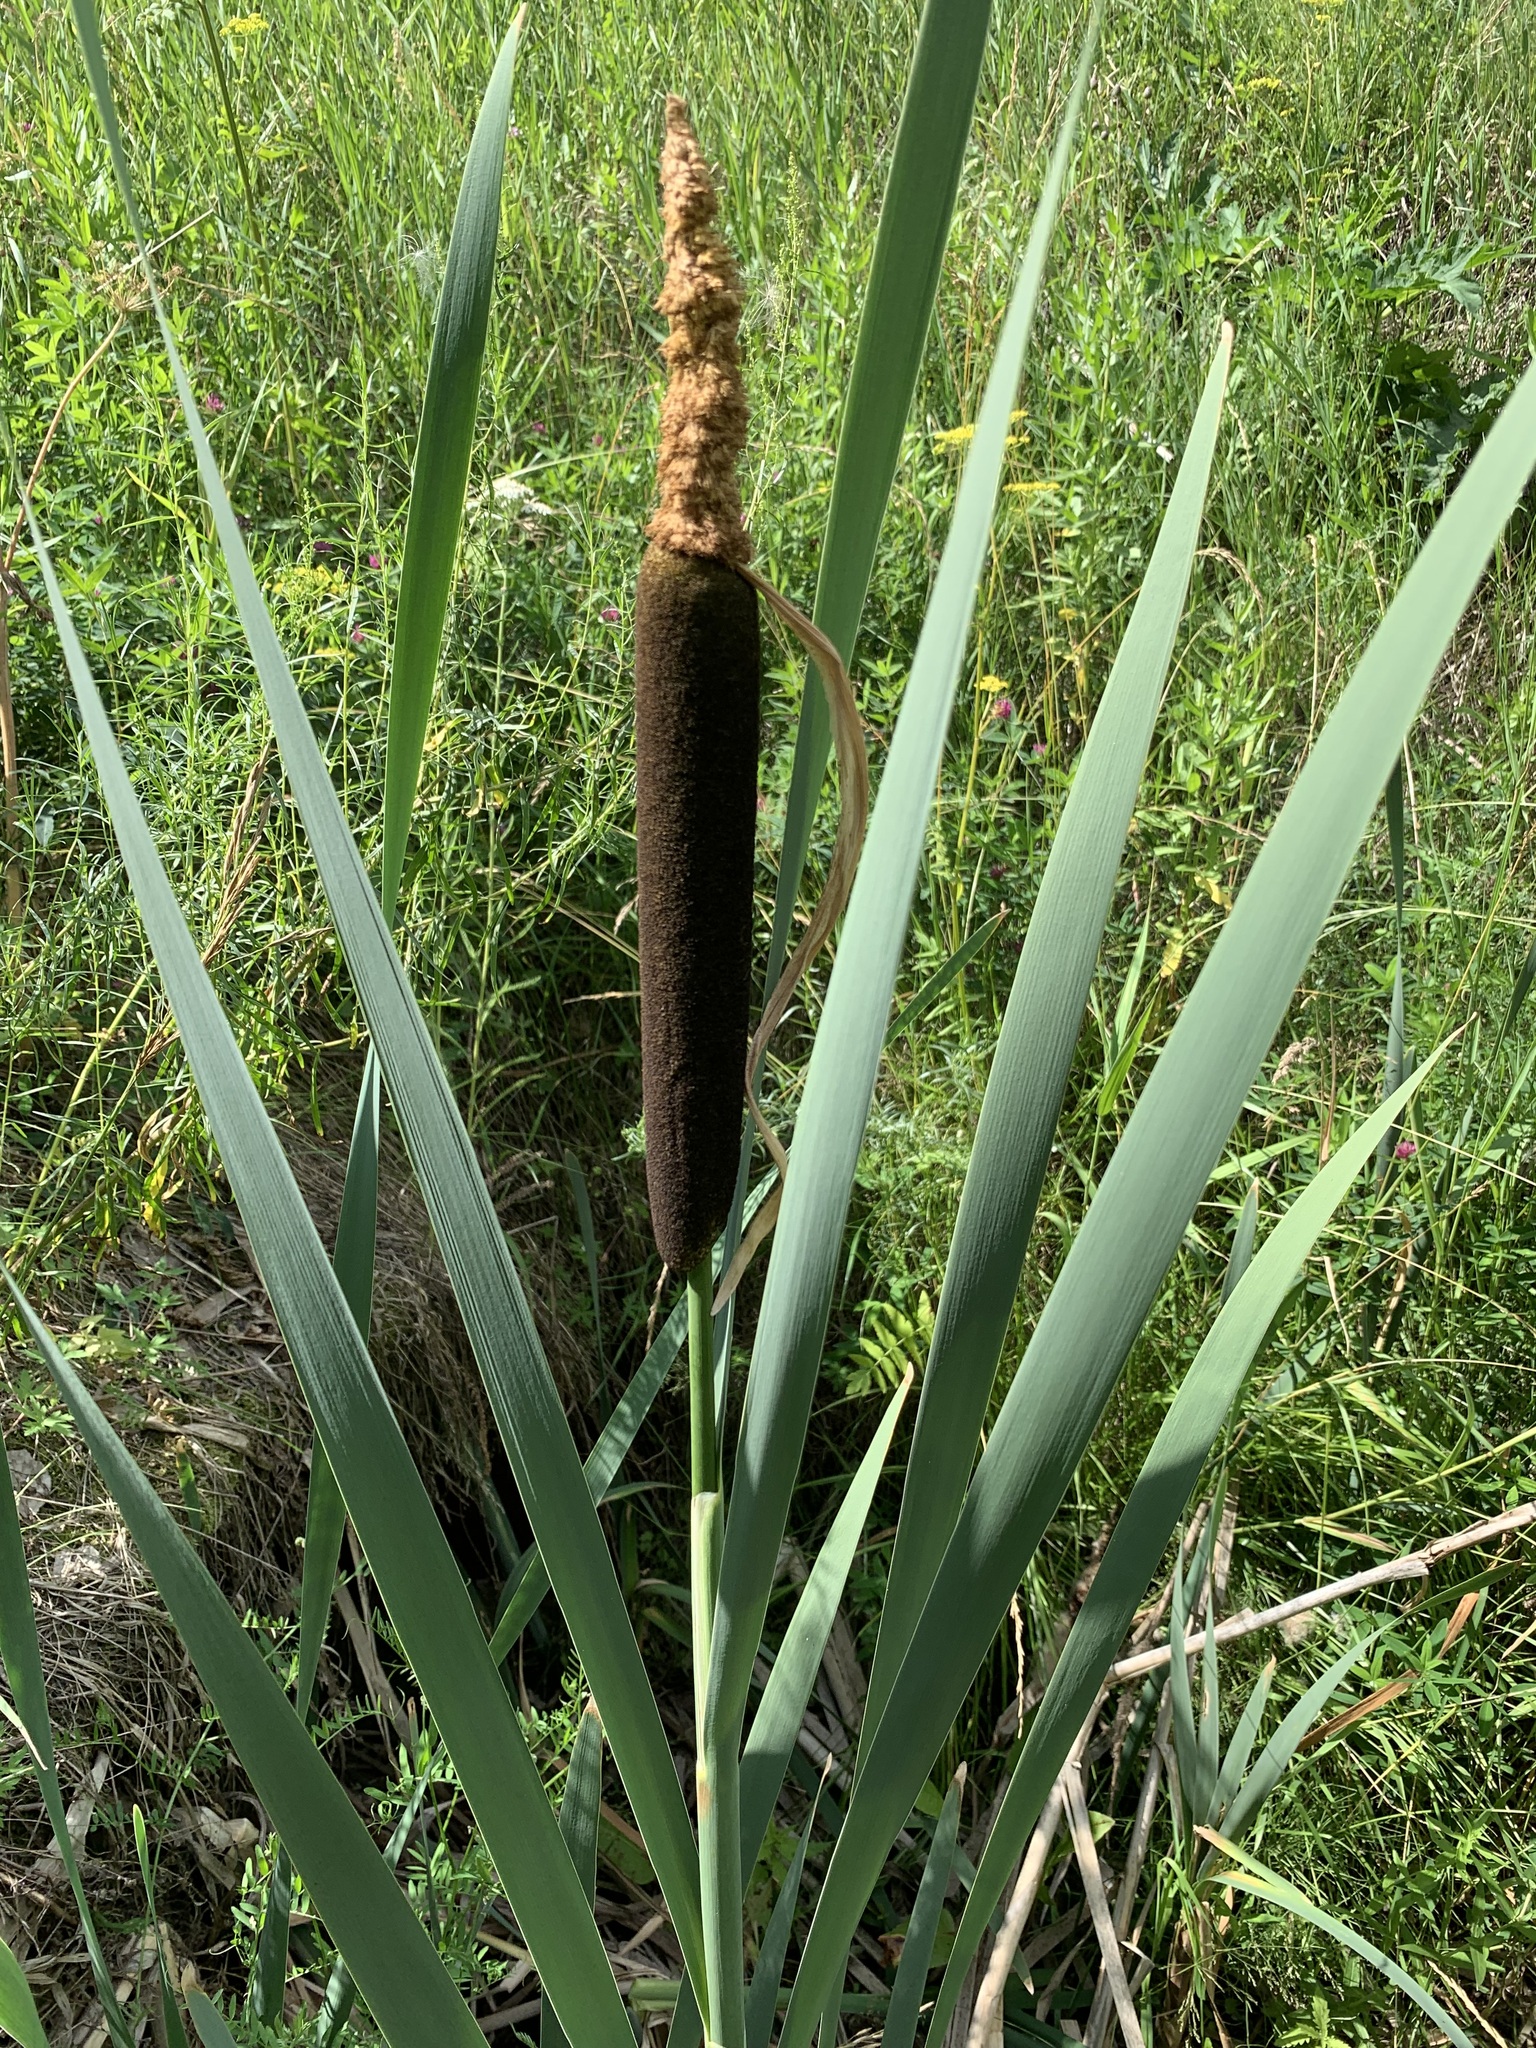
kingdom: Plantae
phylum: Tracheophyta
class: Liliopsida
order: Poales
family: Typhaceae
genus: Typha
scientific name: Typha latifolia
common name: Broadleaf cattail
